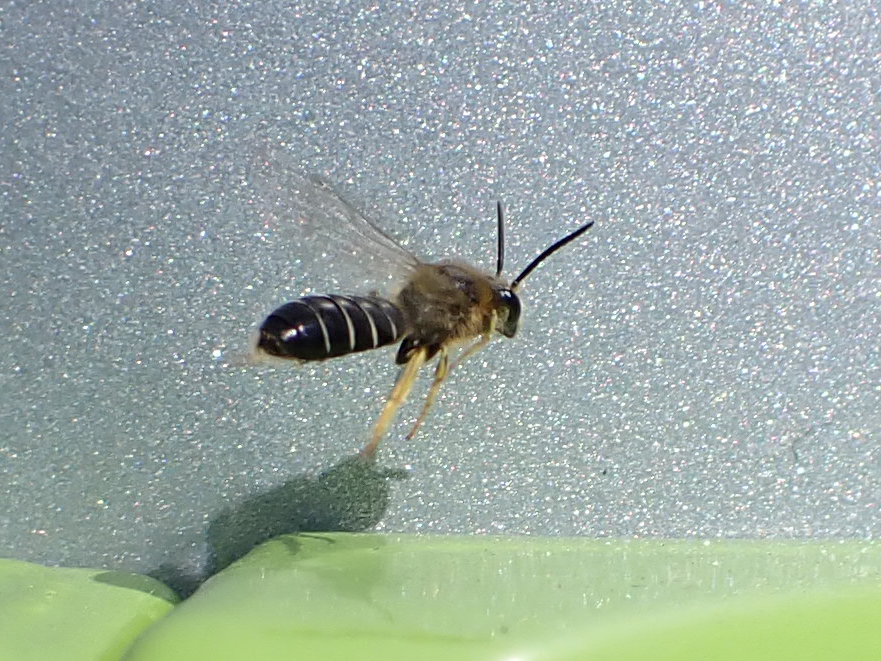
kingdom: Animalia
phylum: Arthropoda
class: Insecta
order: Hymenoptera
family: Halictidae
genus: Halictus
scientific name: Halictus rubicundus
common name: Orange-legged furrow bee
